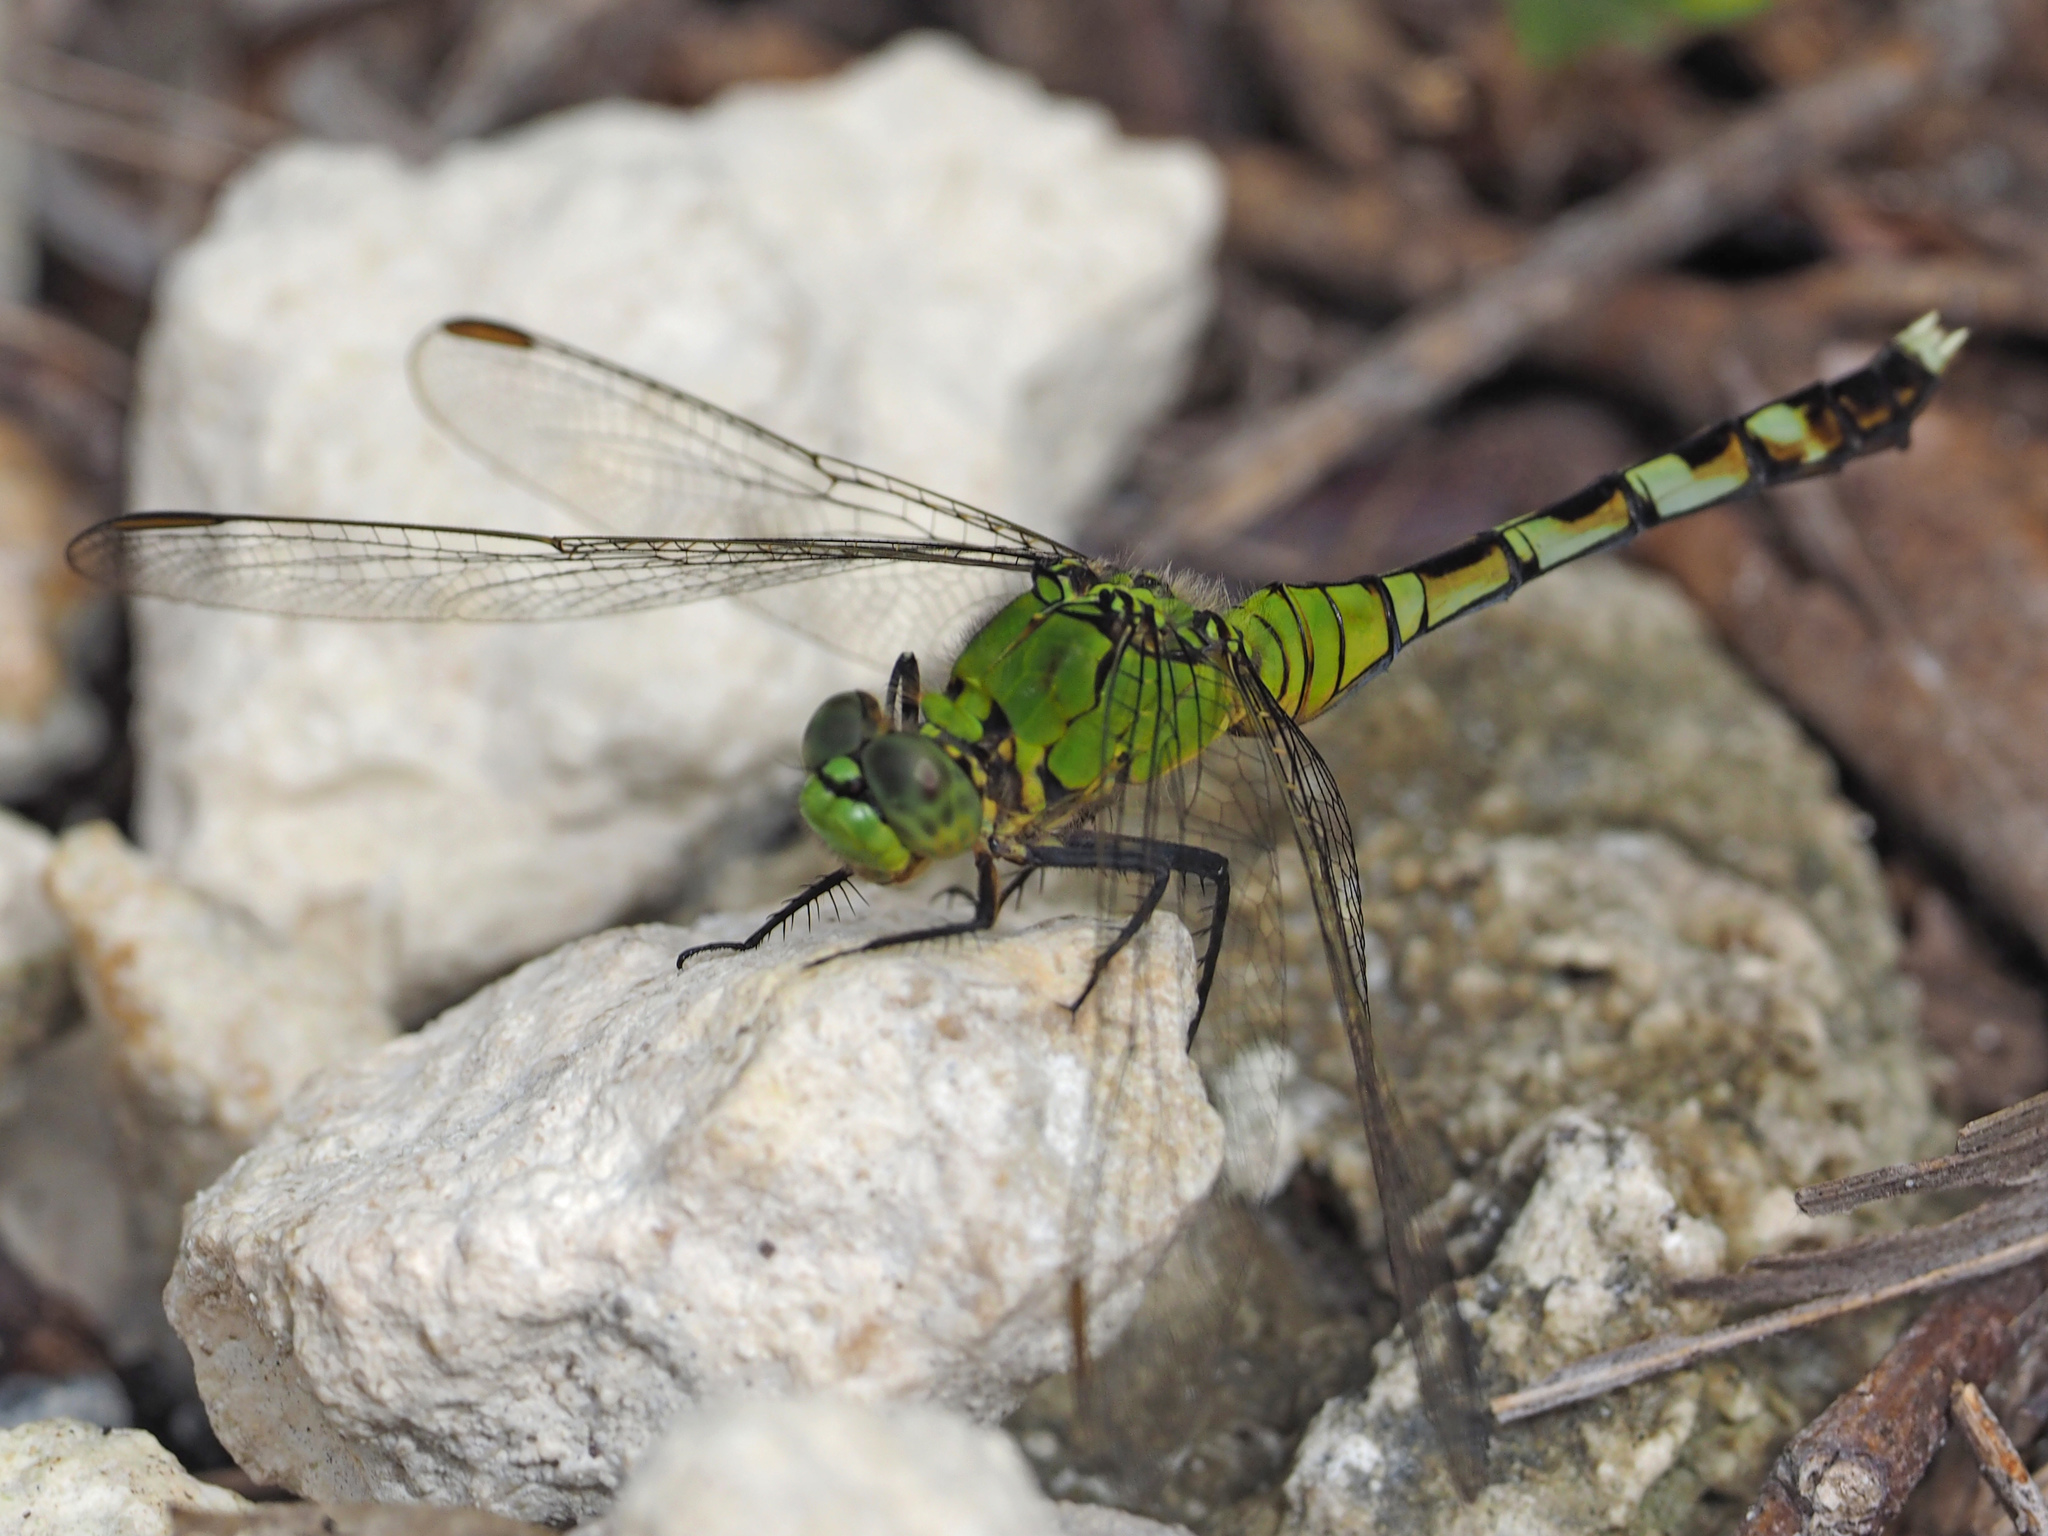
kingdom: Animalia
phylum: Arthropoda
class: Insecta
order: Odonata
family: Libellulidae
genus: Erythemis
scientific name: Erythemis simplicicollis
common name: Eastern pondhawk
